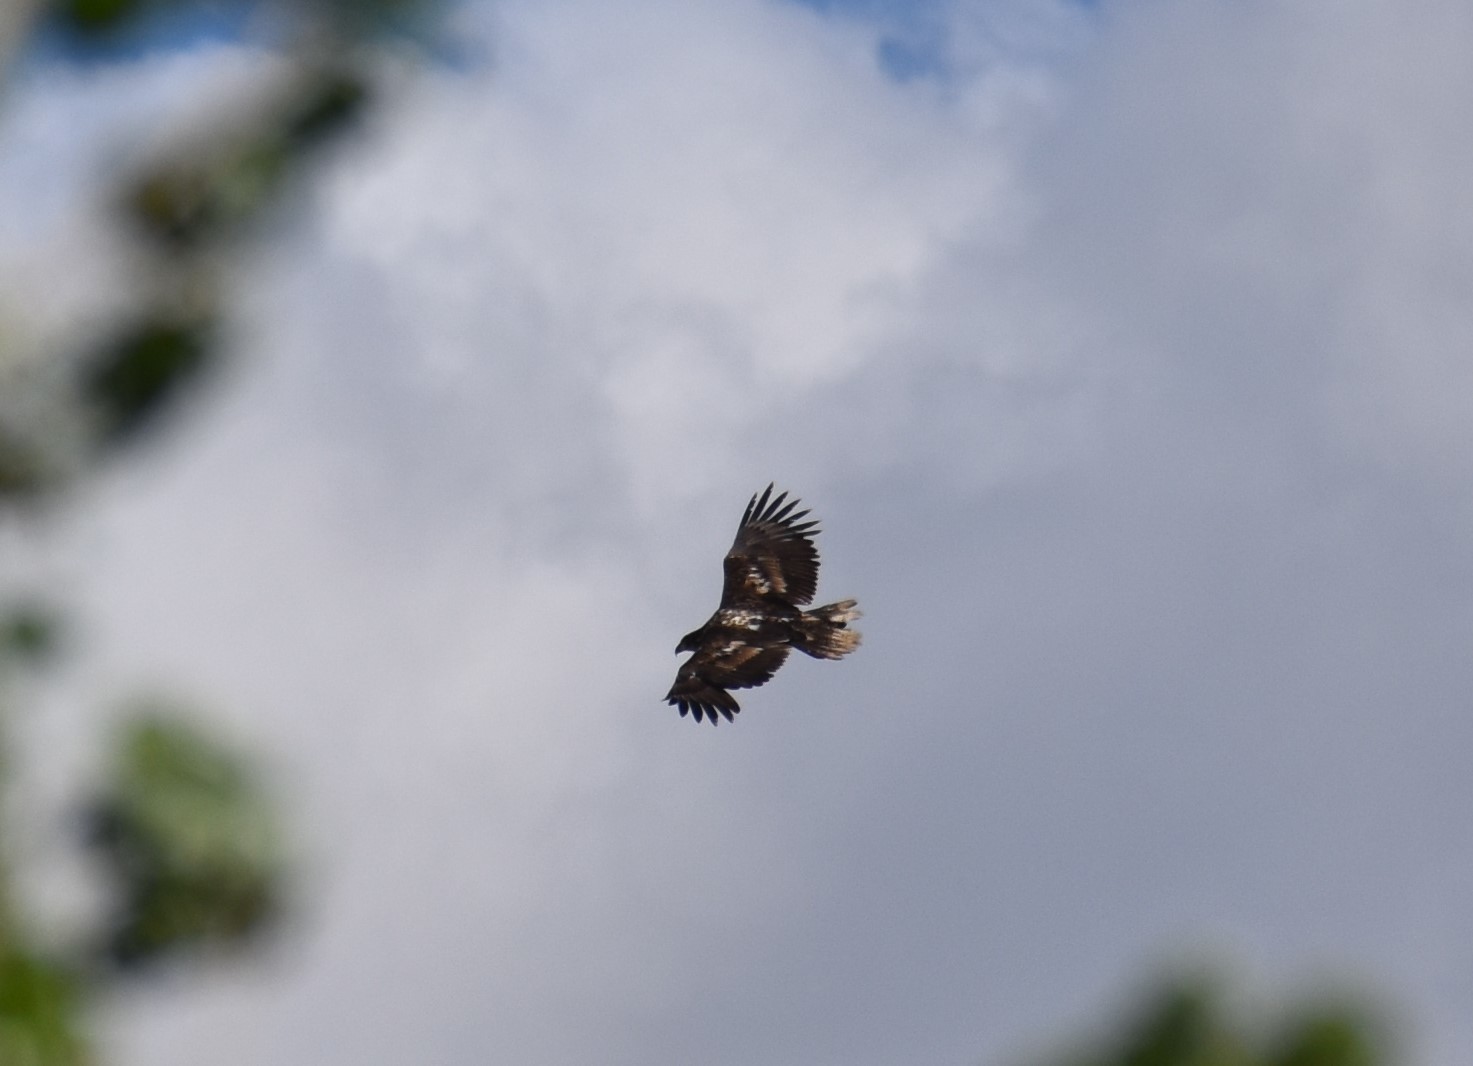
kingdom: Animalia
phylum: Chordata
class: Aves
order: Accipitriformes
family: Accipitridae
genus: Haliaeetus
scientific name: Haliaeetus leucocephalus
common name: Bald eagle
